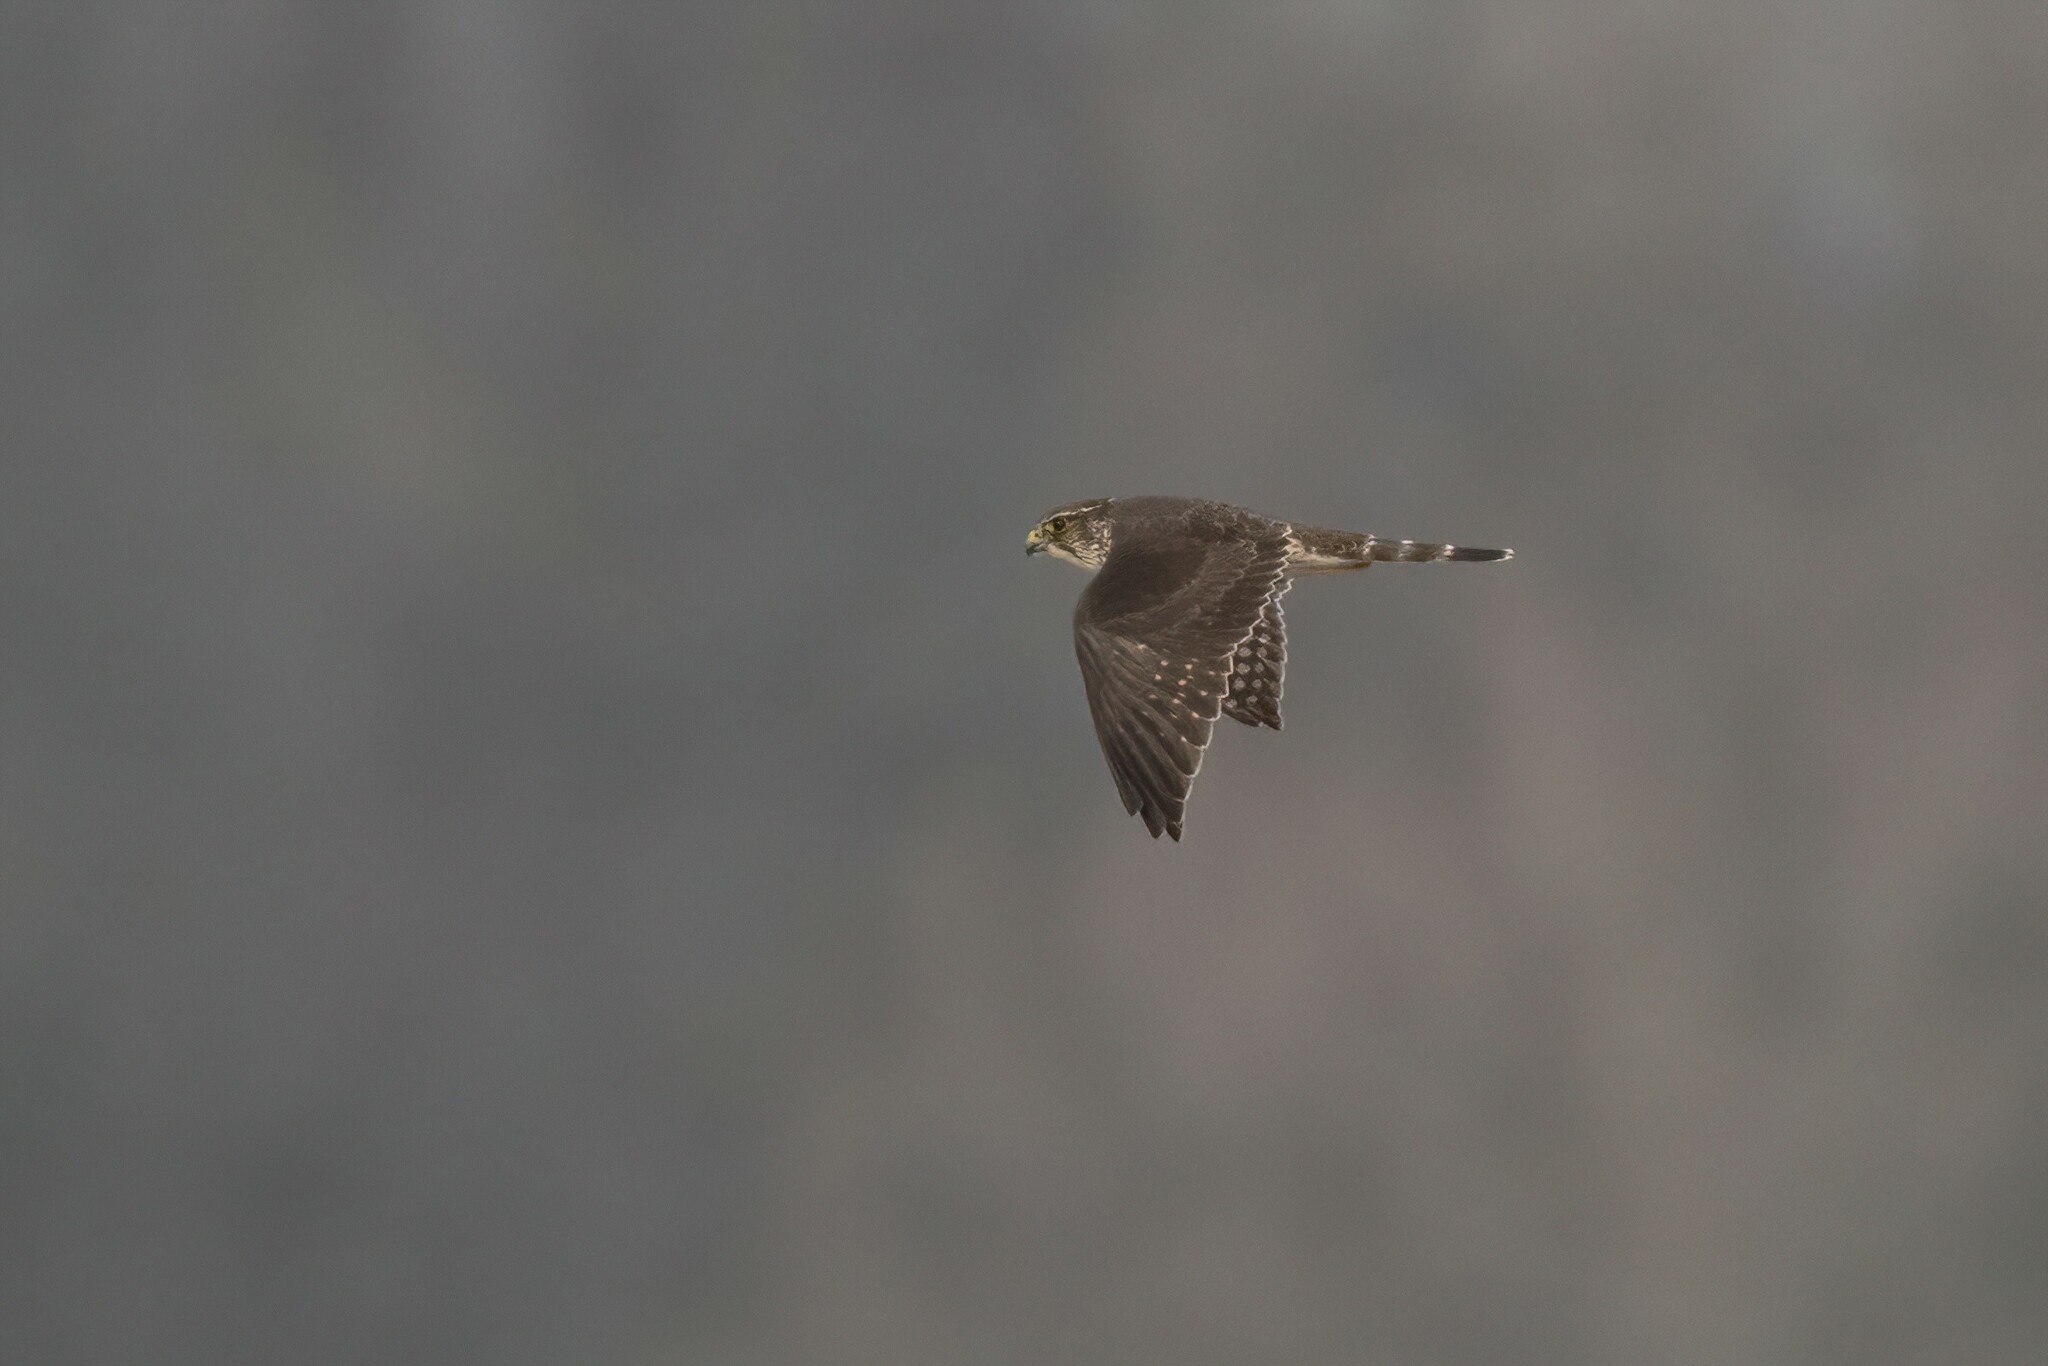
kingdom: Animalia
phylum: Chordata
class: Aves
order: Falconiformes
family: Falconidae
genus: Falco
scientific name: Falco columbarius
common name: Merlin
